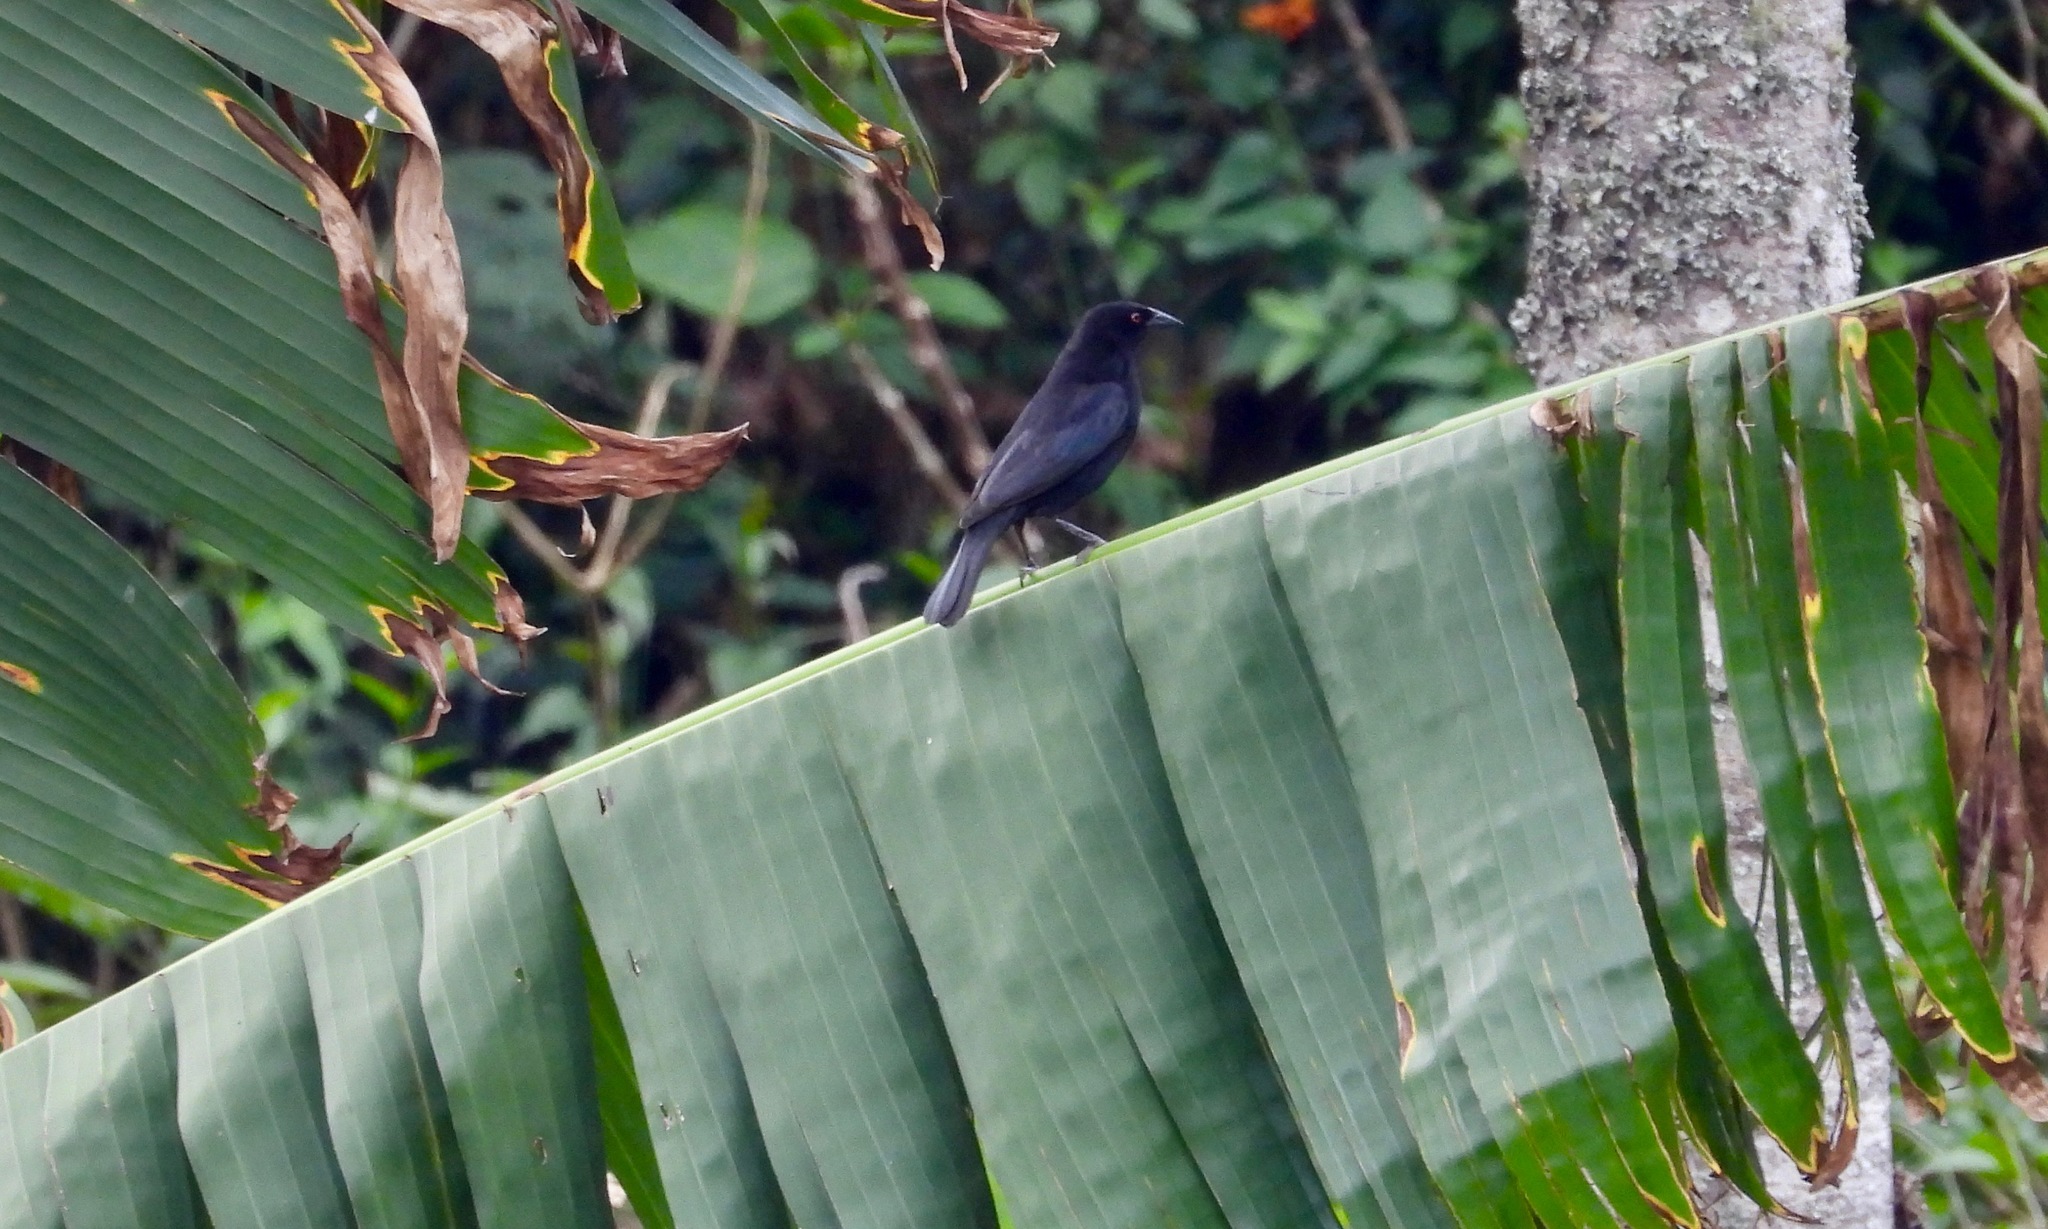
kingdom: Animalia
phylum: Chordata
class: Aves
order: Passeriformes
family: Icteridae
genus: Molothrus
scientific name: Molothrus aeneus
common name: Bronzed cowbird
